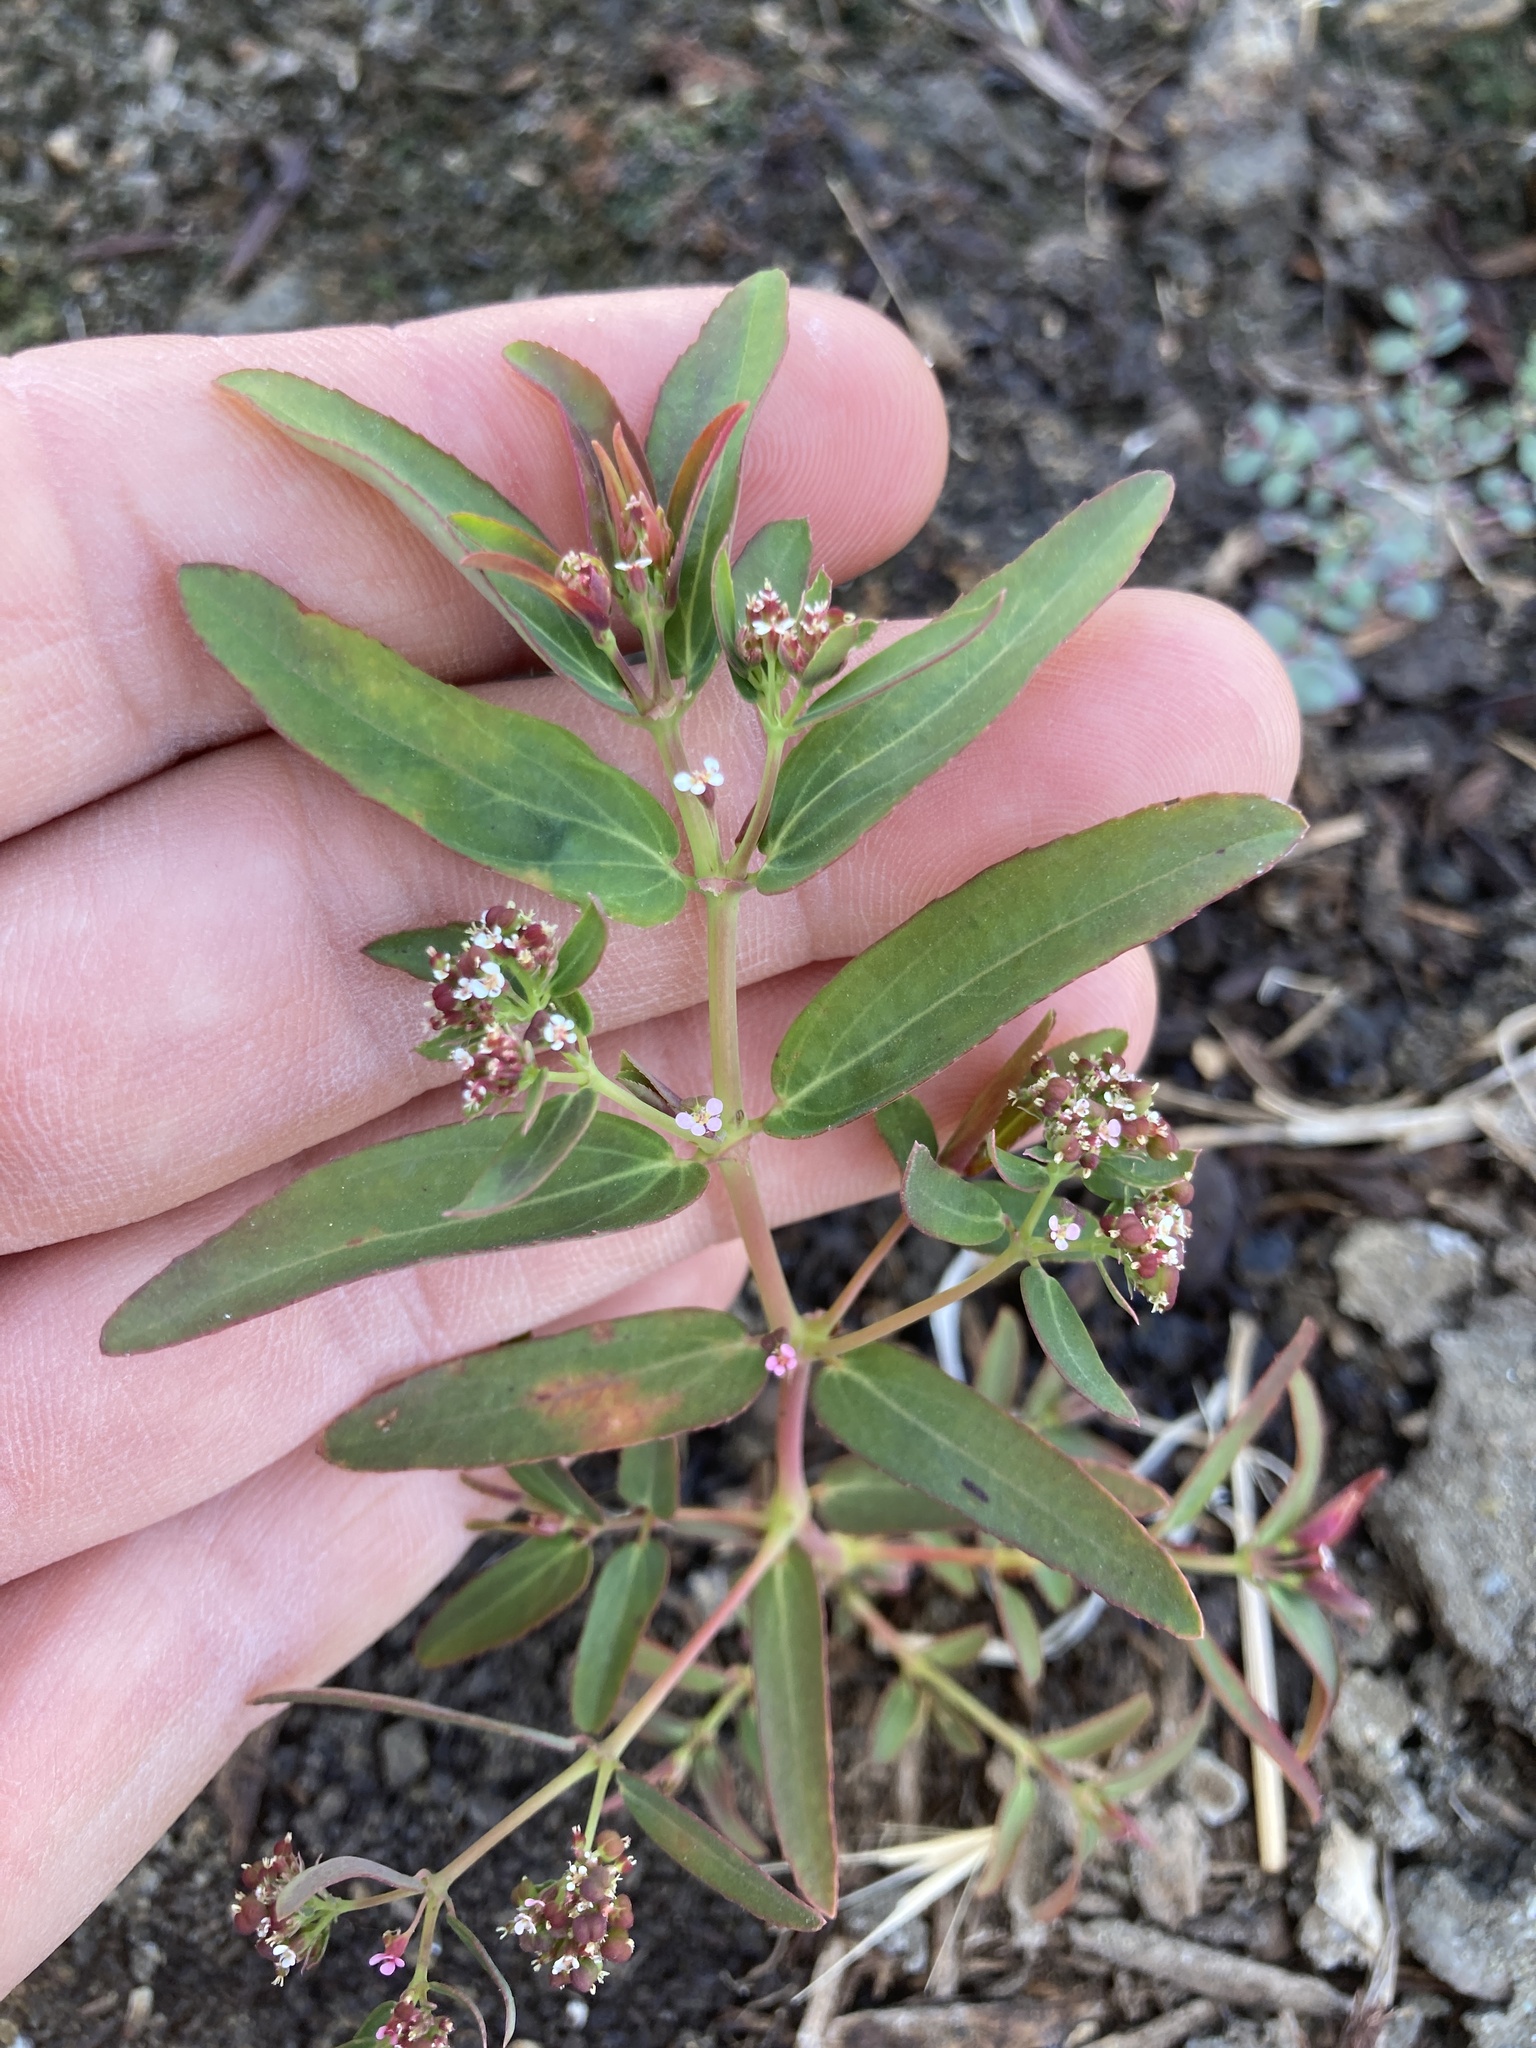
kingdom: Plantae
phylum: Tracheophyta
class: Magnoliopsida
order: Malpighiales
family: Euphorbiaceae
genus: Euphorbia
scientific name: Euphorbia hypericifolia
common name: Graceful sandmat
